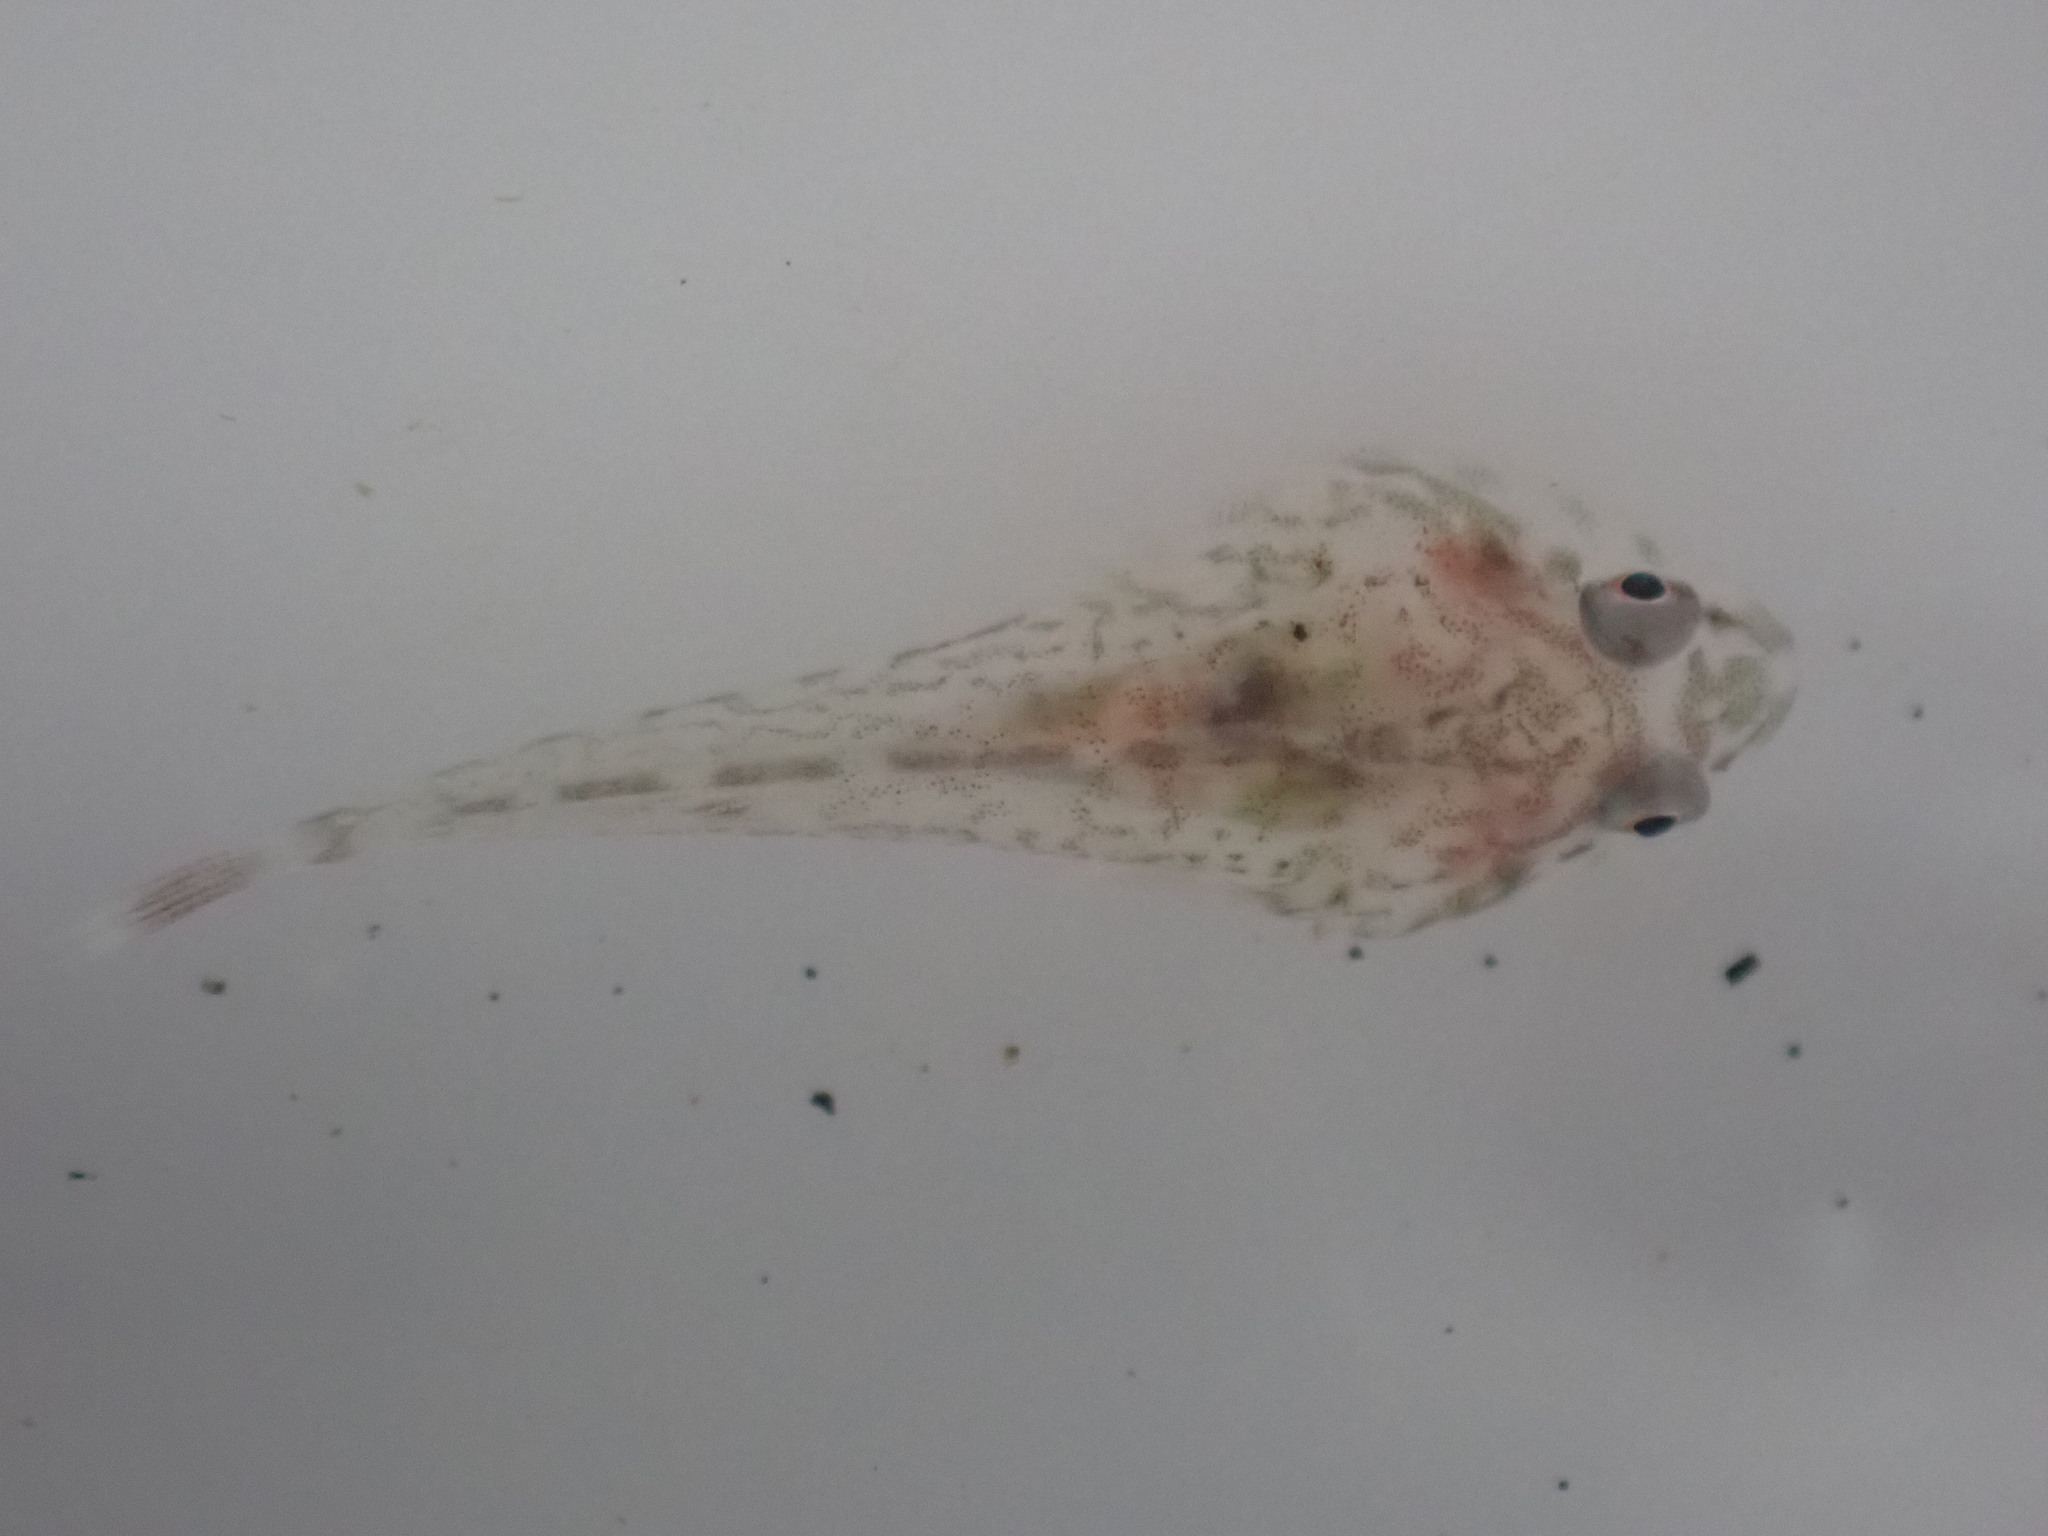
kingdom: Animalia
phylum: Chordata
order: Gobiesociformes
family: Gobiesocidae
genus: Diplocrepis
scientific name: Diplocrepis puniceus
